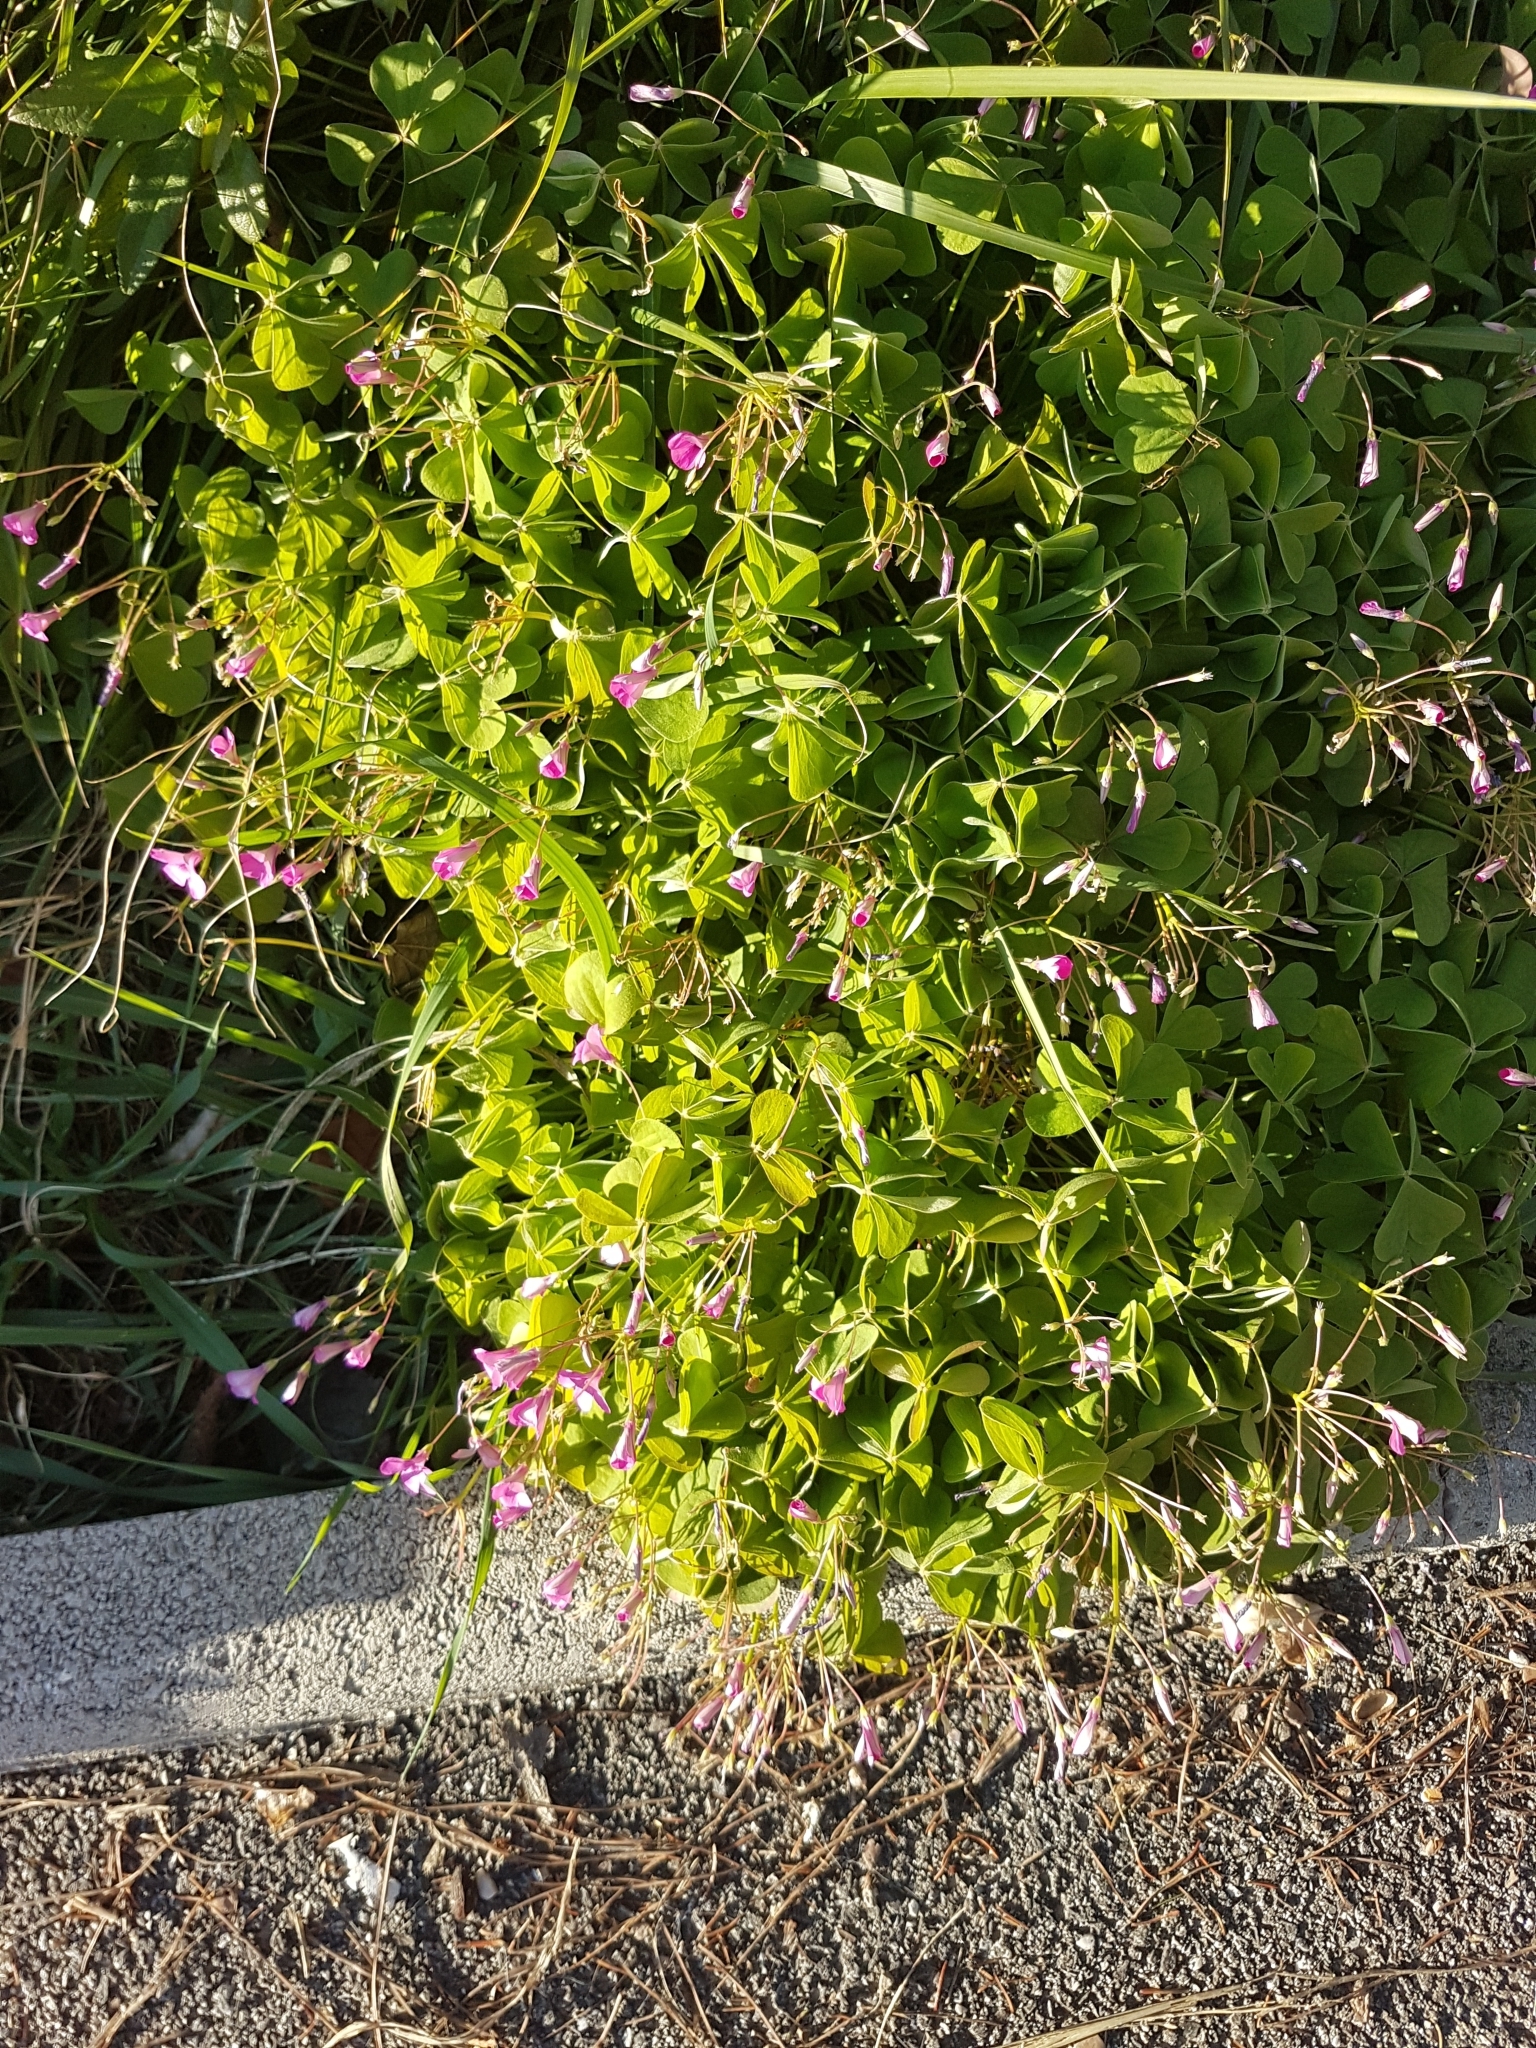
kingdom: Plantae
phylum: Tracheophyta
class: Magnoliopsida
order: Oxalidales
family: Oxalidaceae
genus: Oxalis
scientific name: Oxalis articulata
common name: Pink-sorrel
